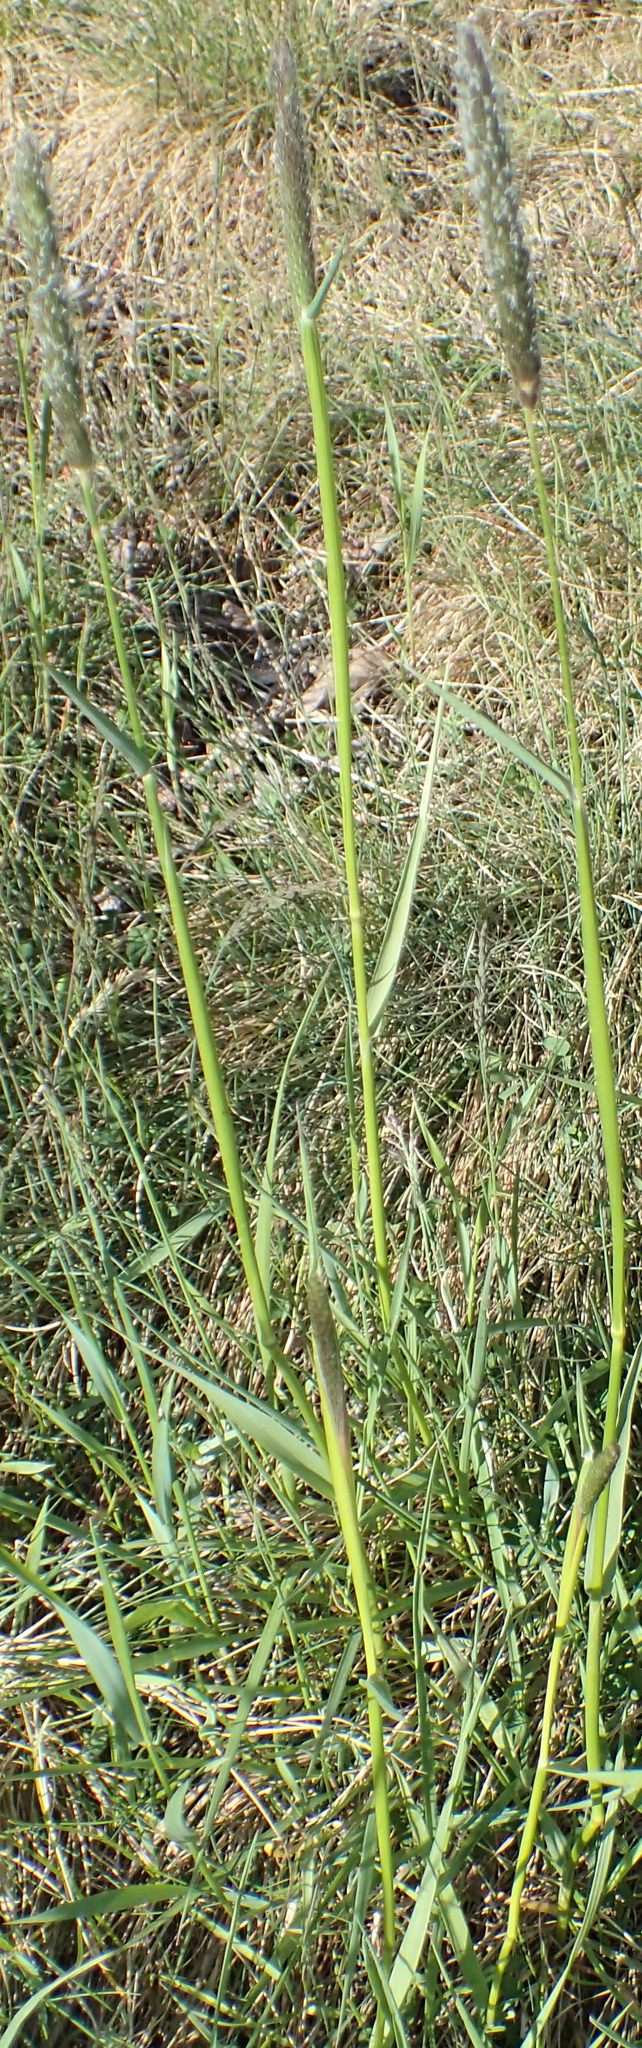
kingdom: Plantae
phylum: Tracheophyta
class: Liliopsida
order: Poales
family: Poaceae
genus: Alopecurus
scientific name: Alopecurus pratensis
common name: Meadow foxtail
